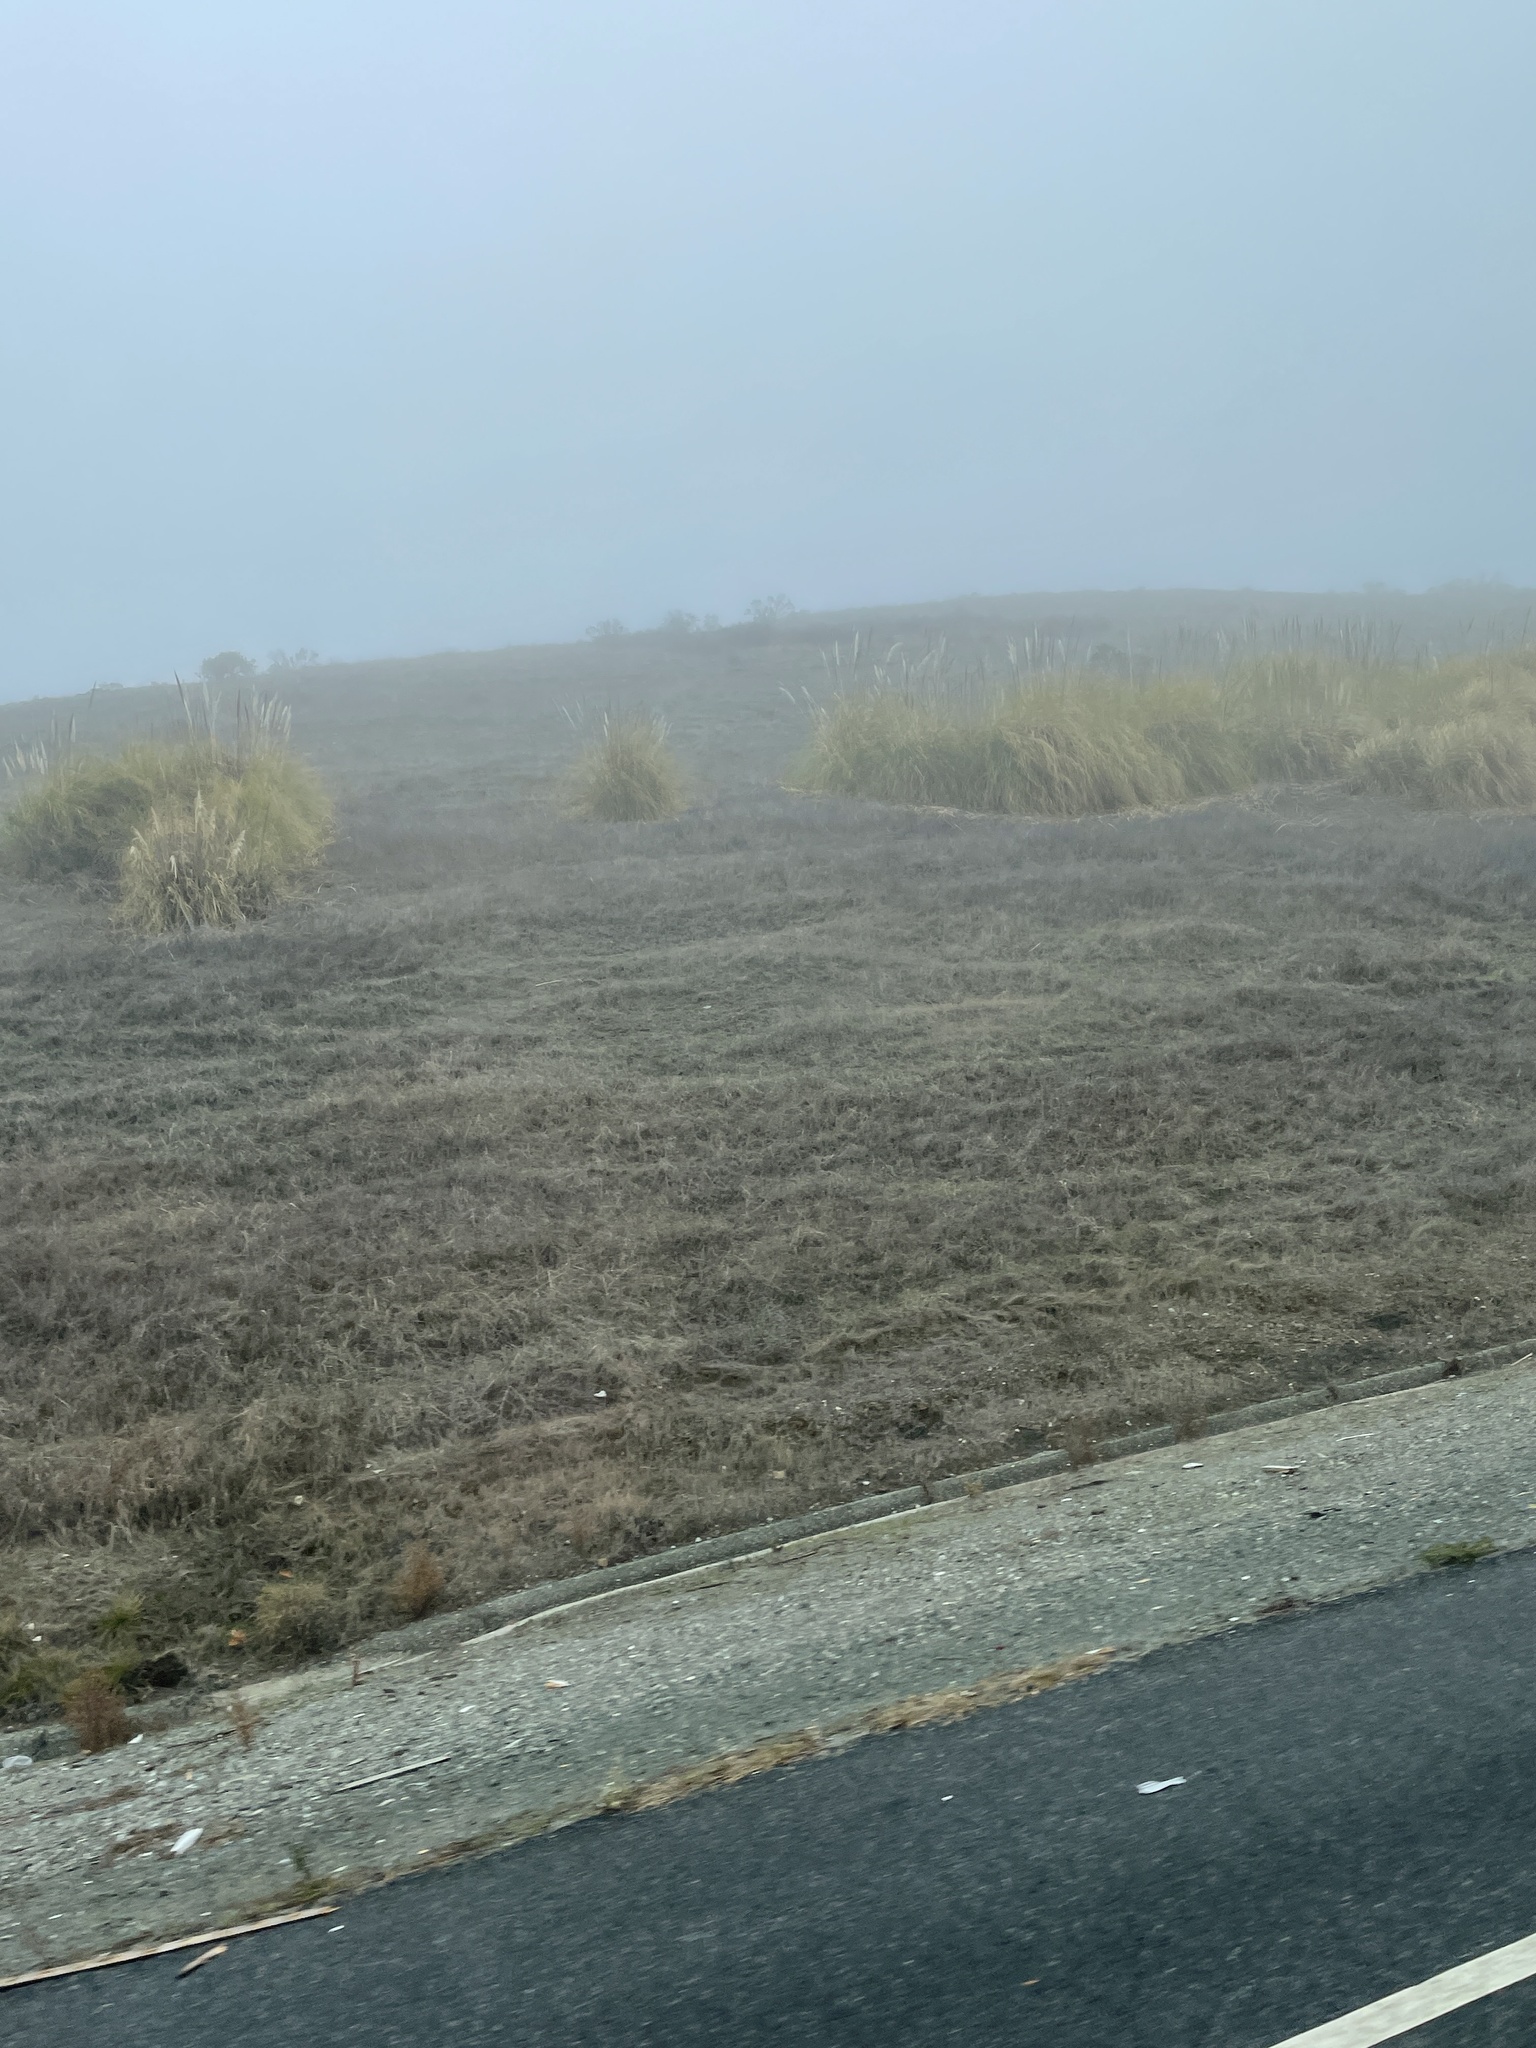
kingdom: Plantae
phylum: Tracheophyta
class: Liliopsida
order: Poales
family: Poaceae
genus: Cortaderia
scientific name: Cortaderia selloana
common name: Uruguayan pampas grass
